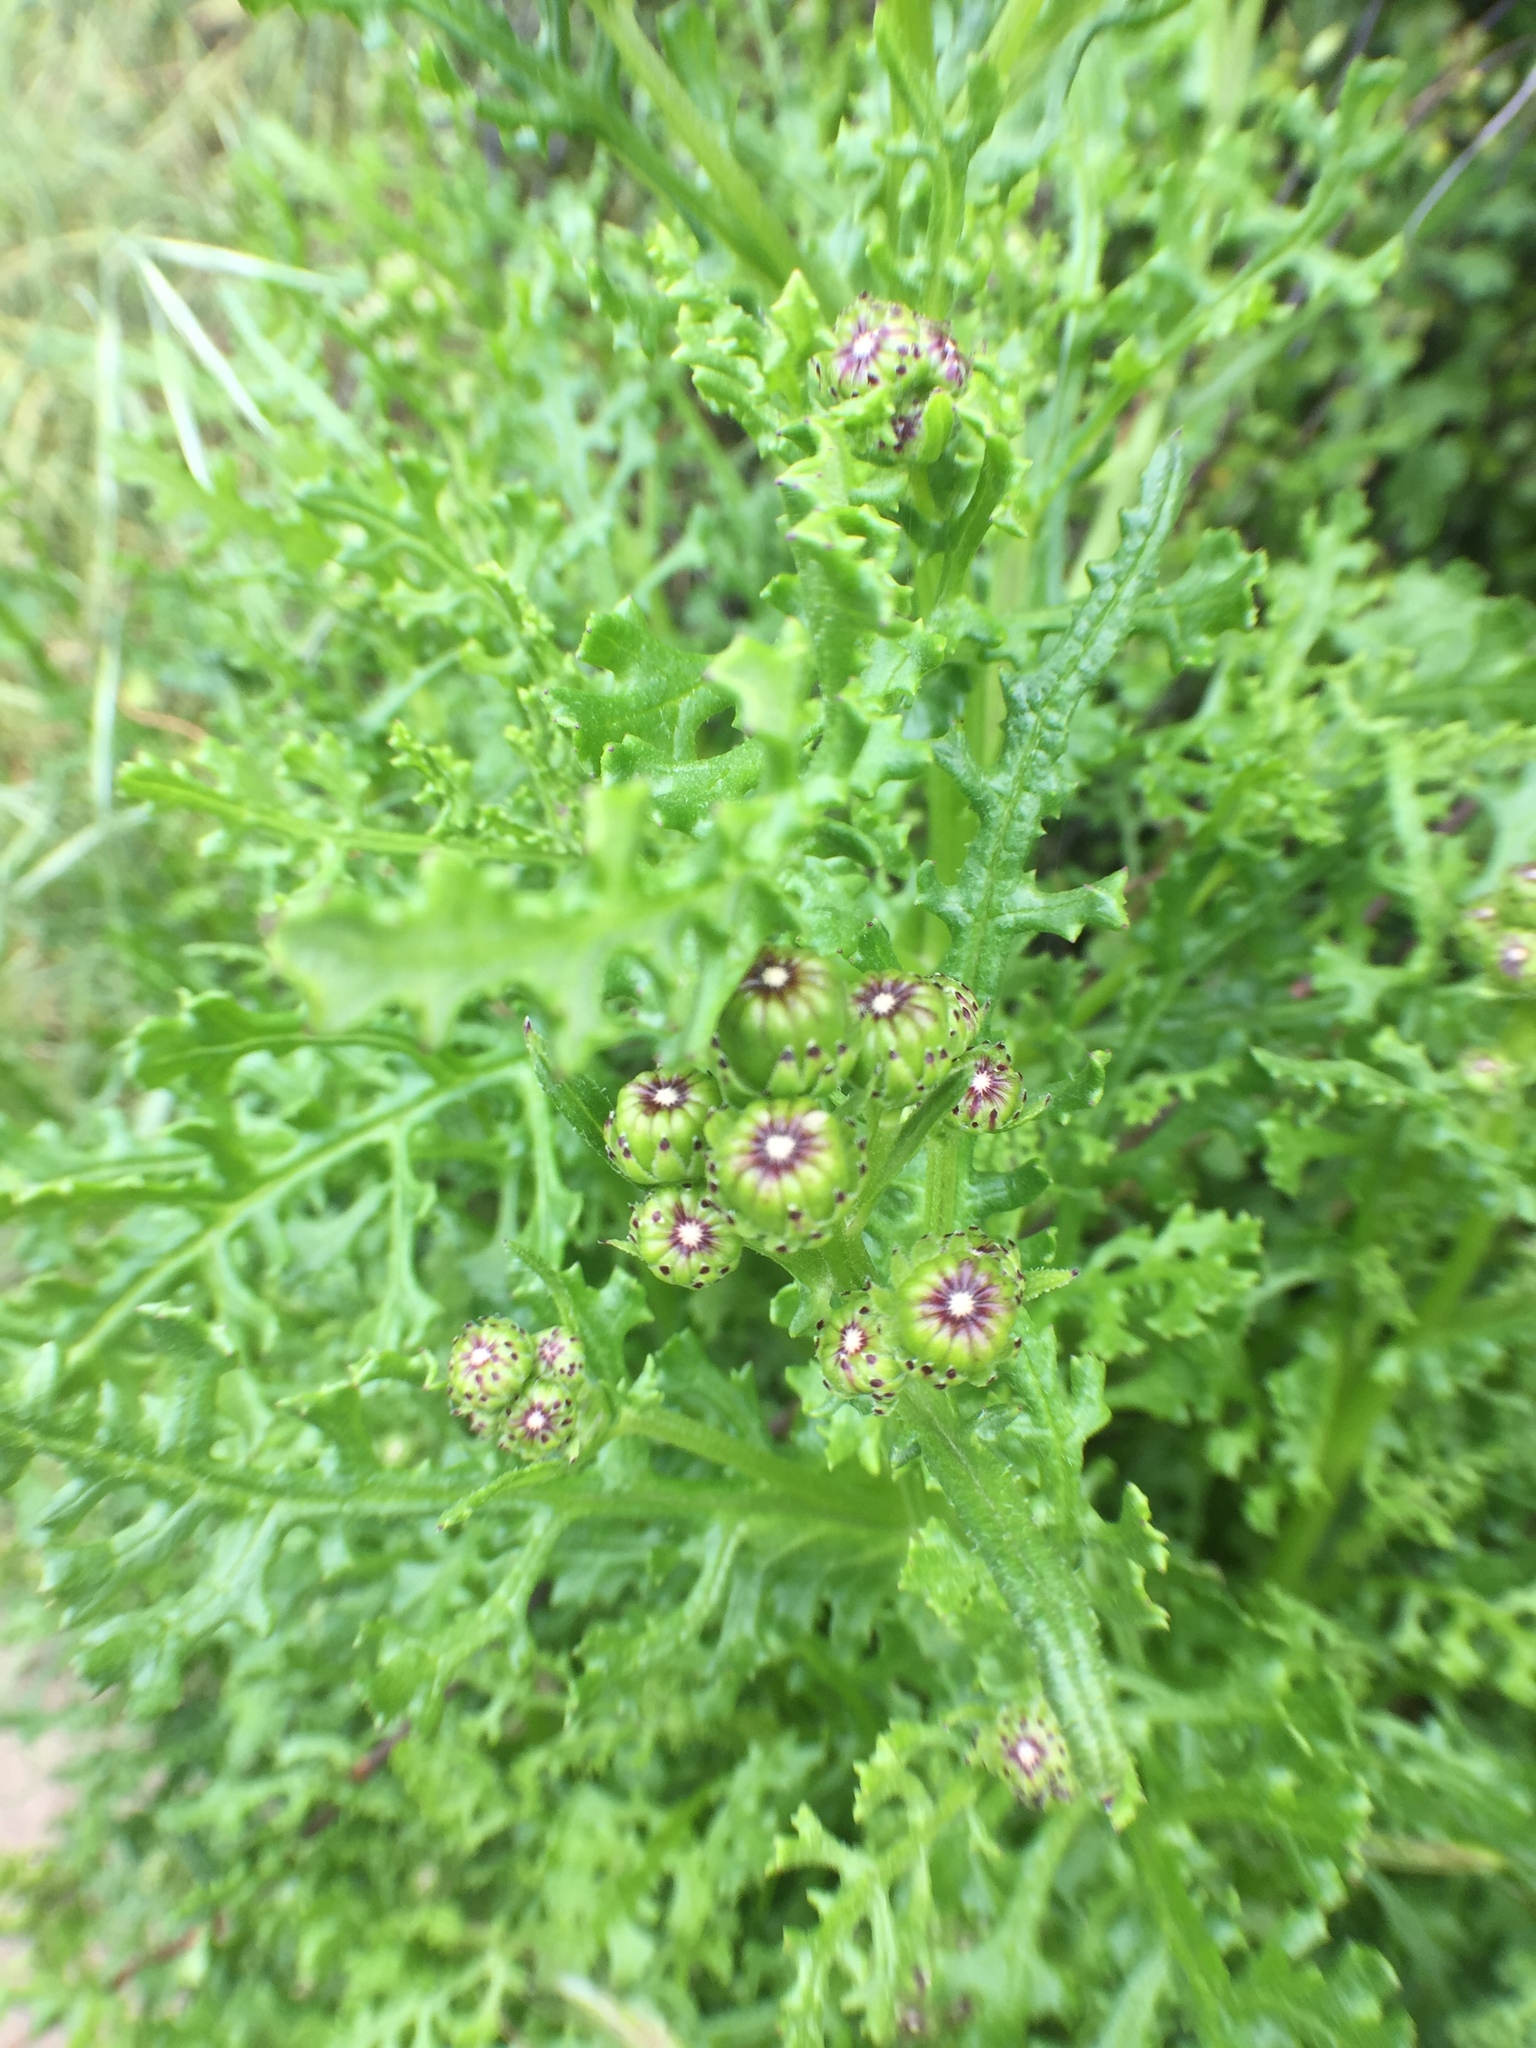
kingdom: Plantae
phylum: Tracheophyta
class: Magnoliopsida
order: Asterales
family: Asteraceae
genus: Senecio
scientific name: Senecio elegans
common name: Purple groundsel
